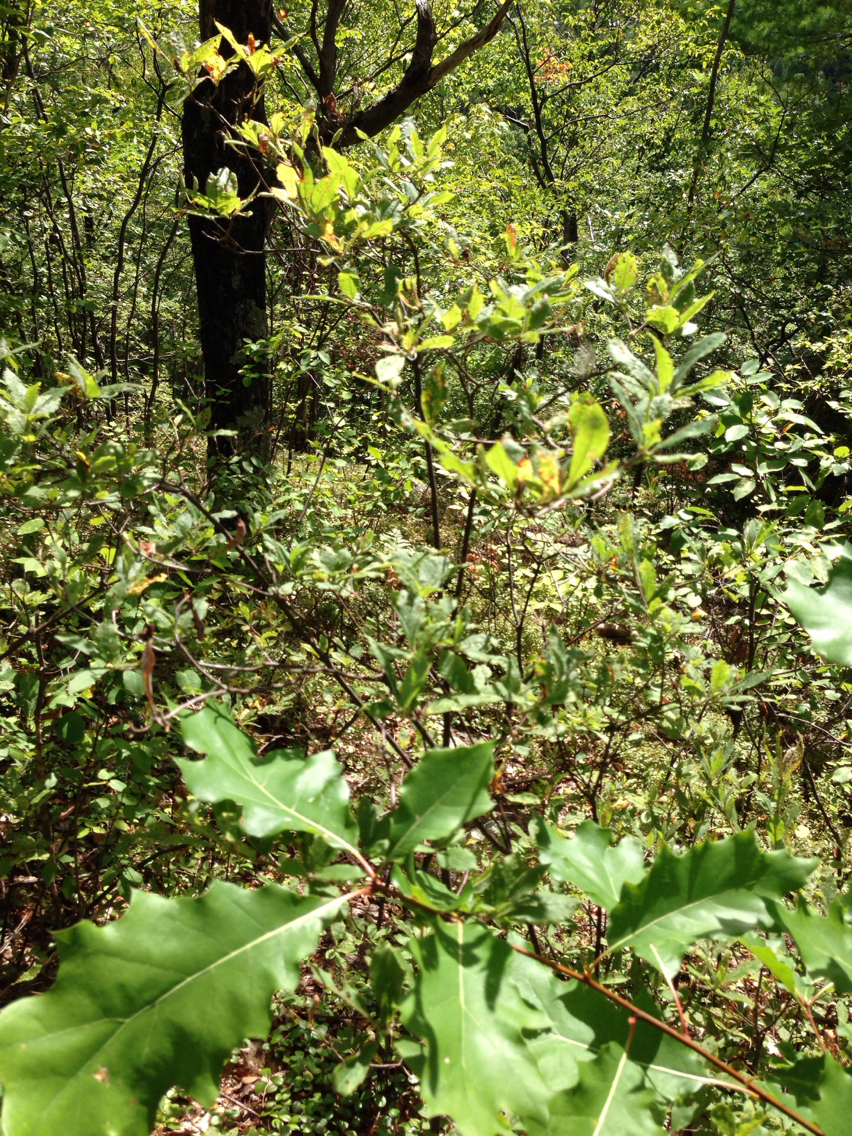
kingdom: Plantae
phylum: Tracheophyta
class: Magnoliopsida
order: Ericales
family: Ericaceae
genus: Rhododendron
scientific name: Rhododendron roseum
